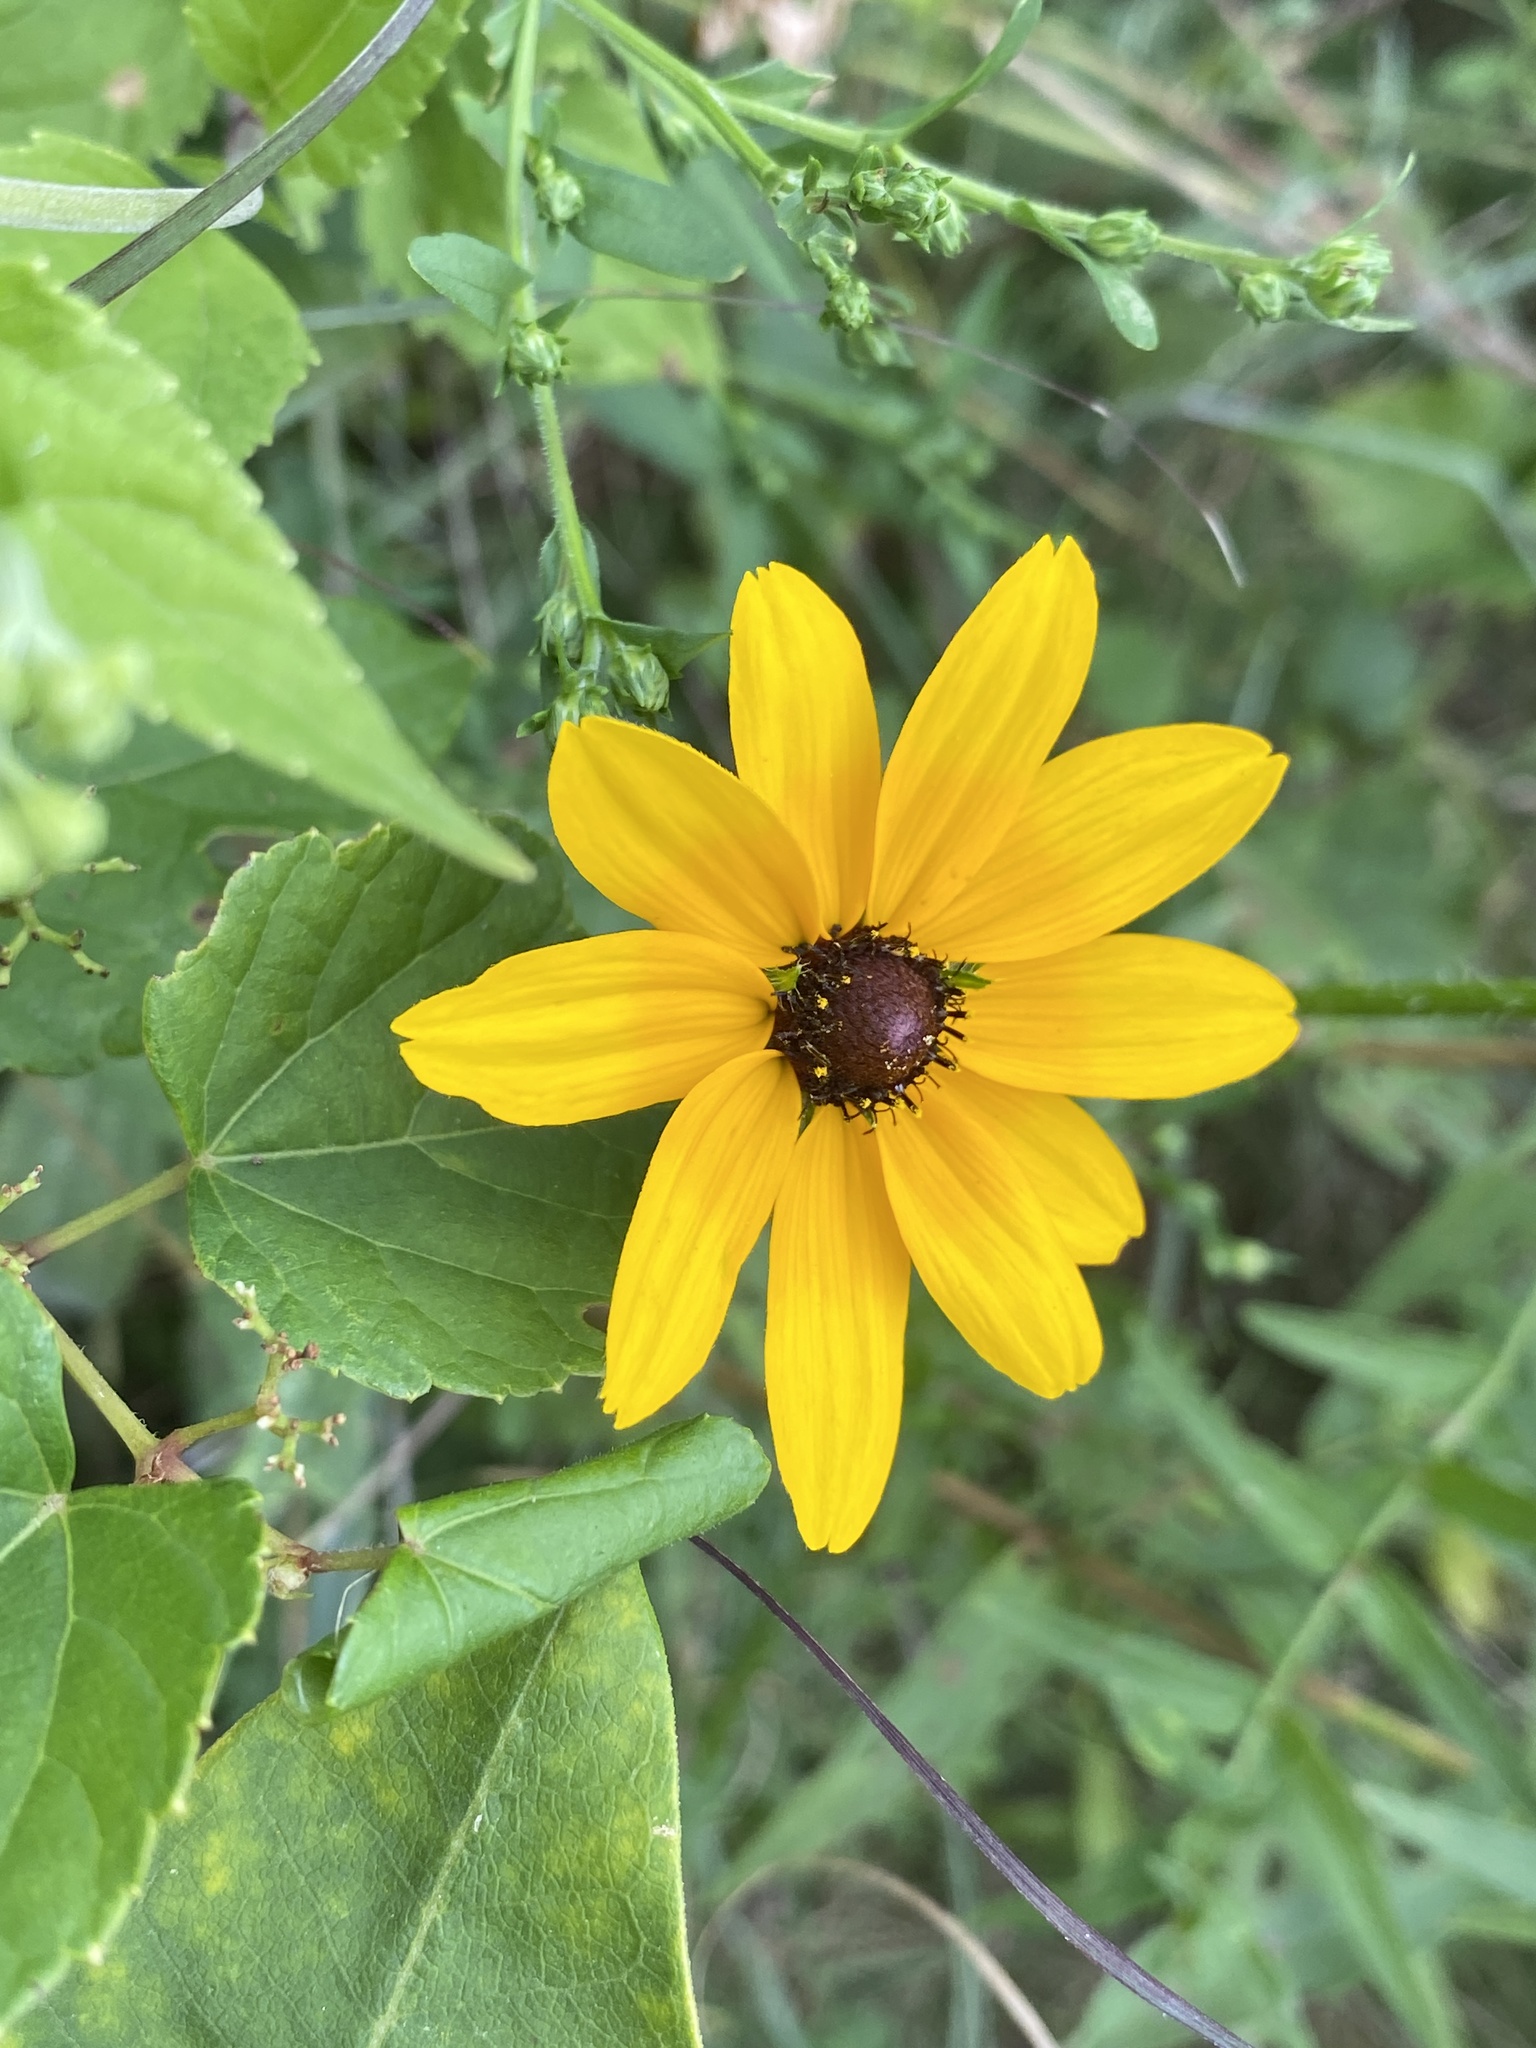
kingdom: Plantae
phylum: Tracheophyta
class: Magnoliopsida
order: Asterales
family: Asteraceae
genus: Rudbeckia
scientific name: Rudbeckia hirta
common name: Black-eyed-susan
